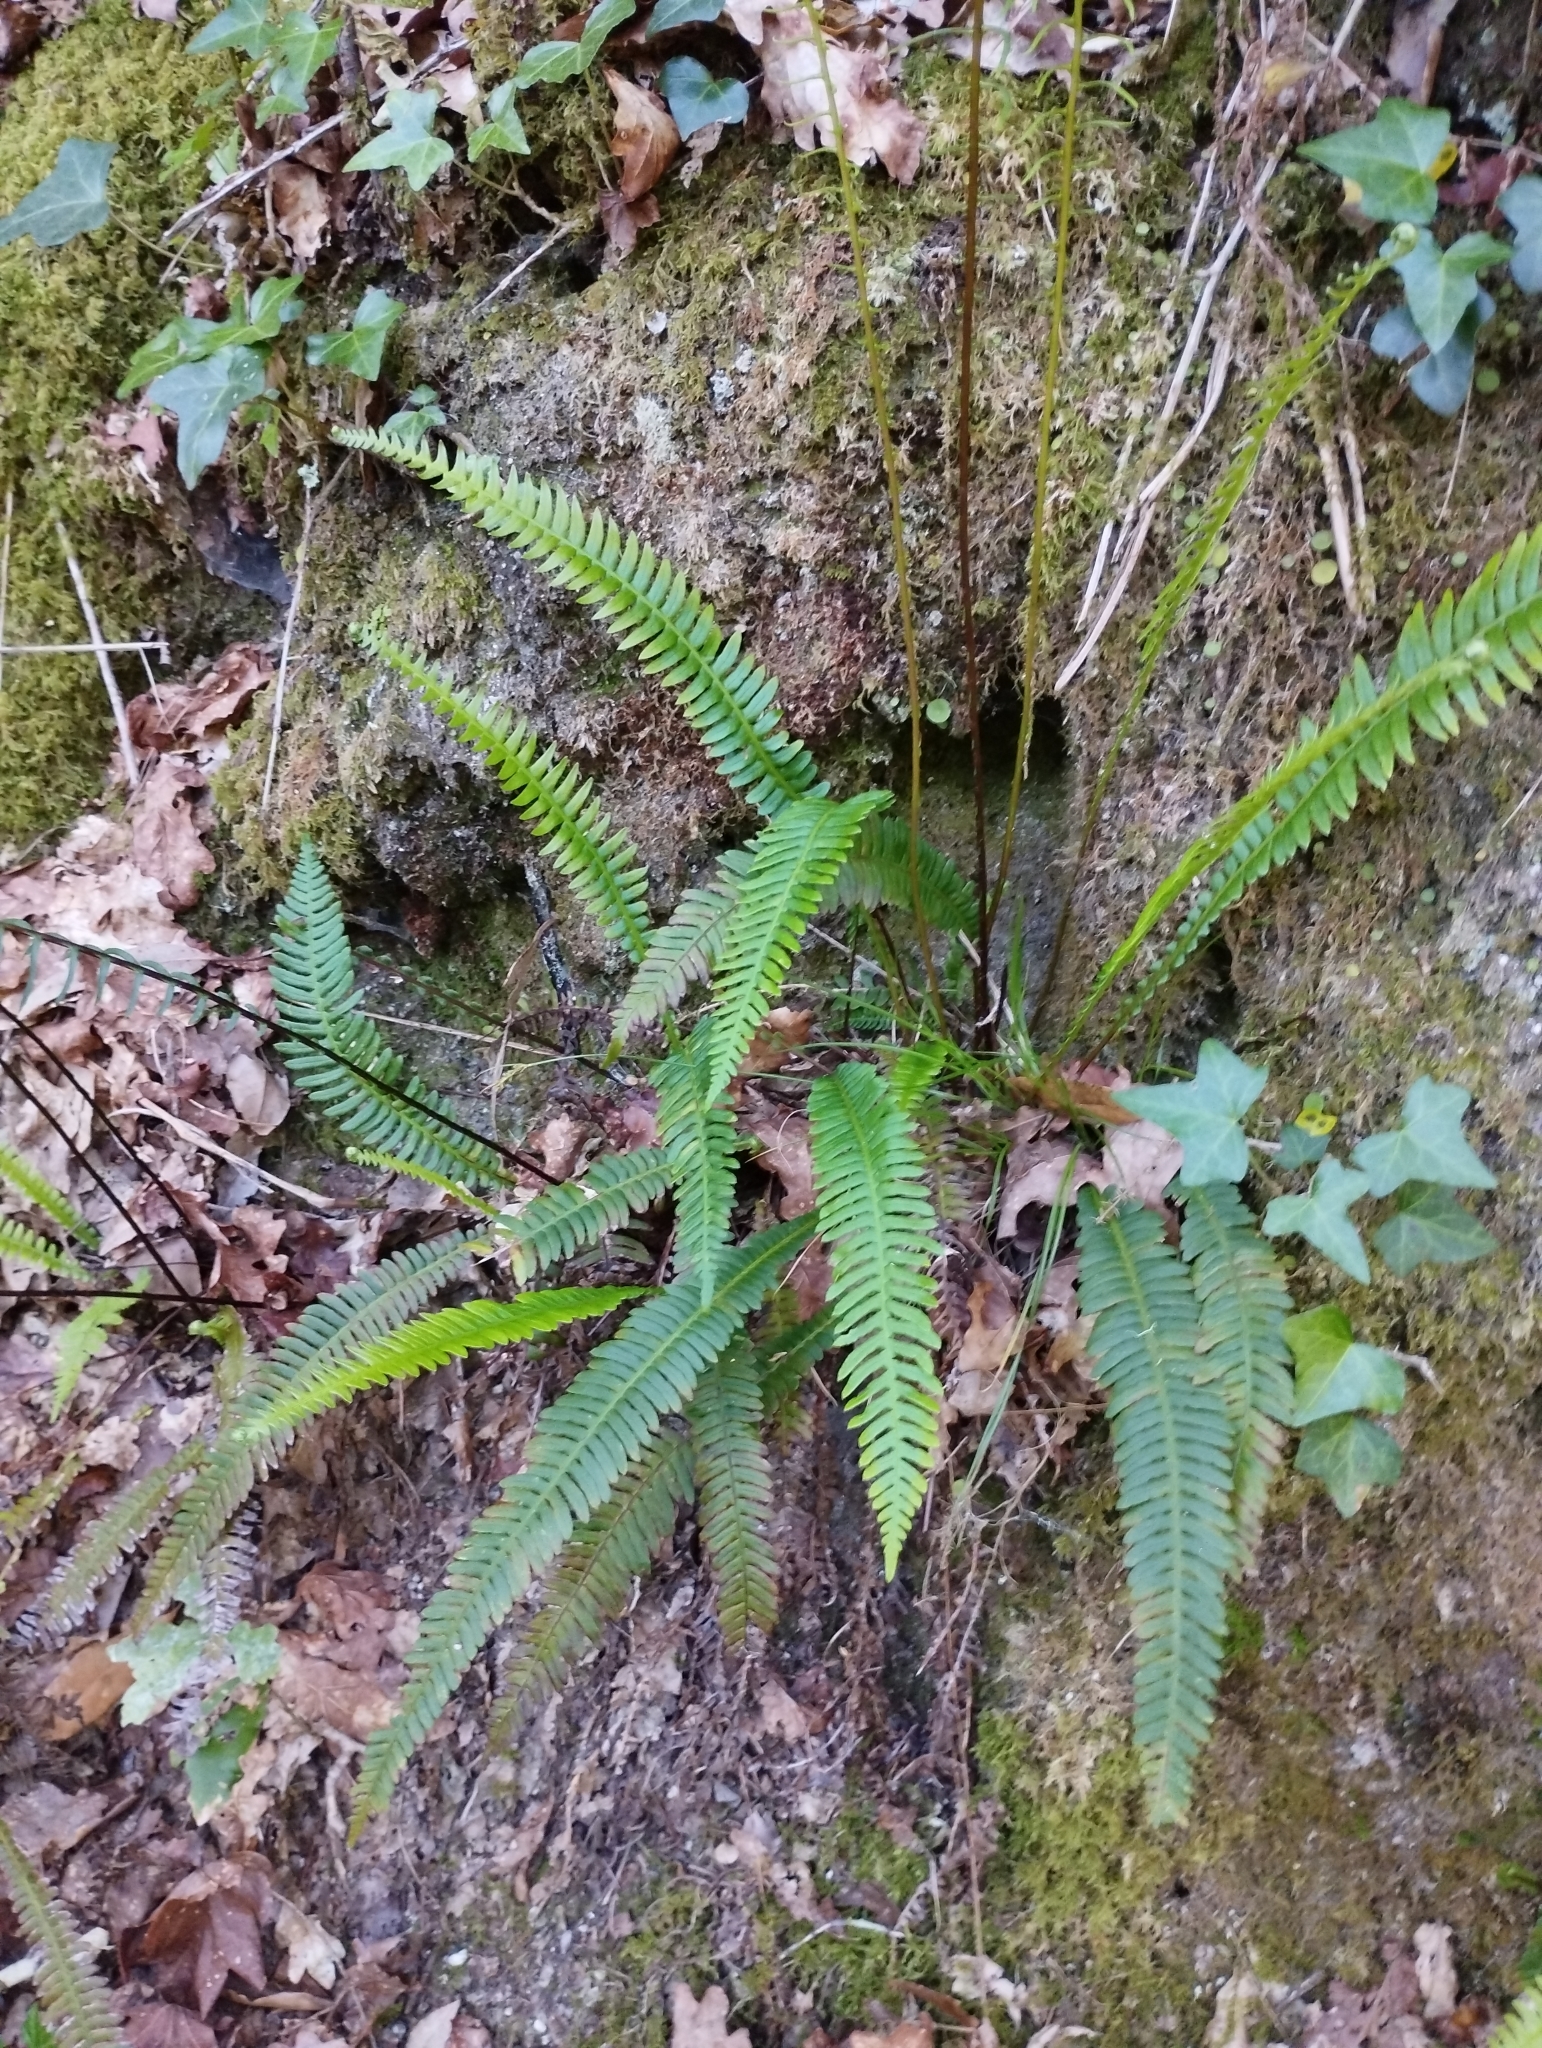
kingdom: Plantae
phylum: Tracheophyta
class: Polypodiopsida
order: Polypodiales
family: Blechnaceae
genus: Struthiopteris
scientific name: Struthiopteris spicant
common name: Deer fern
